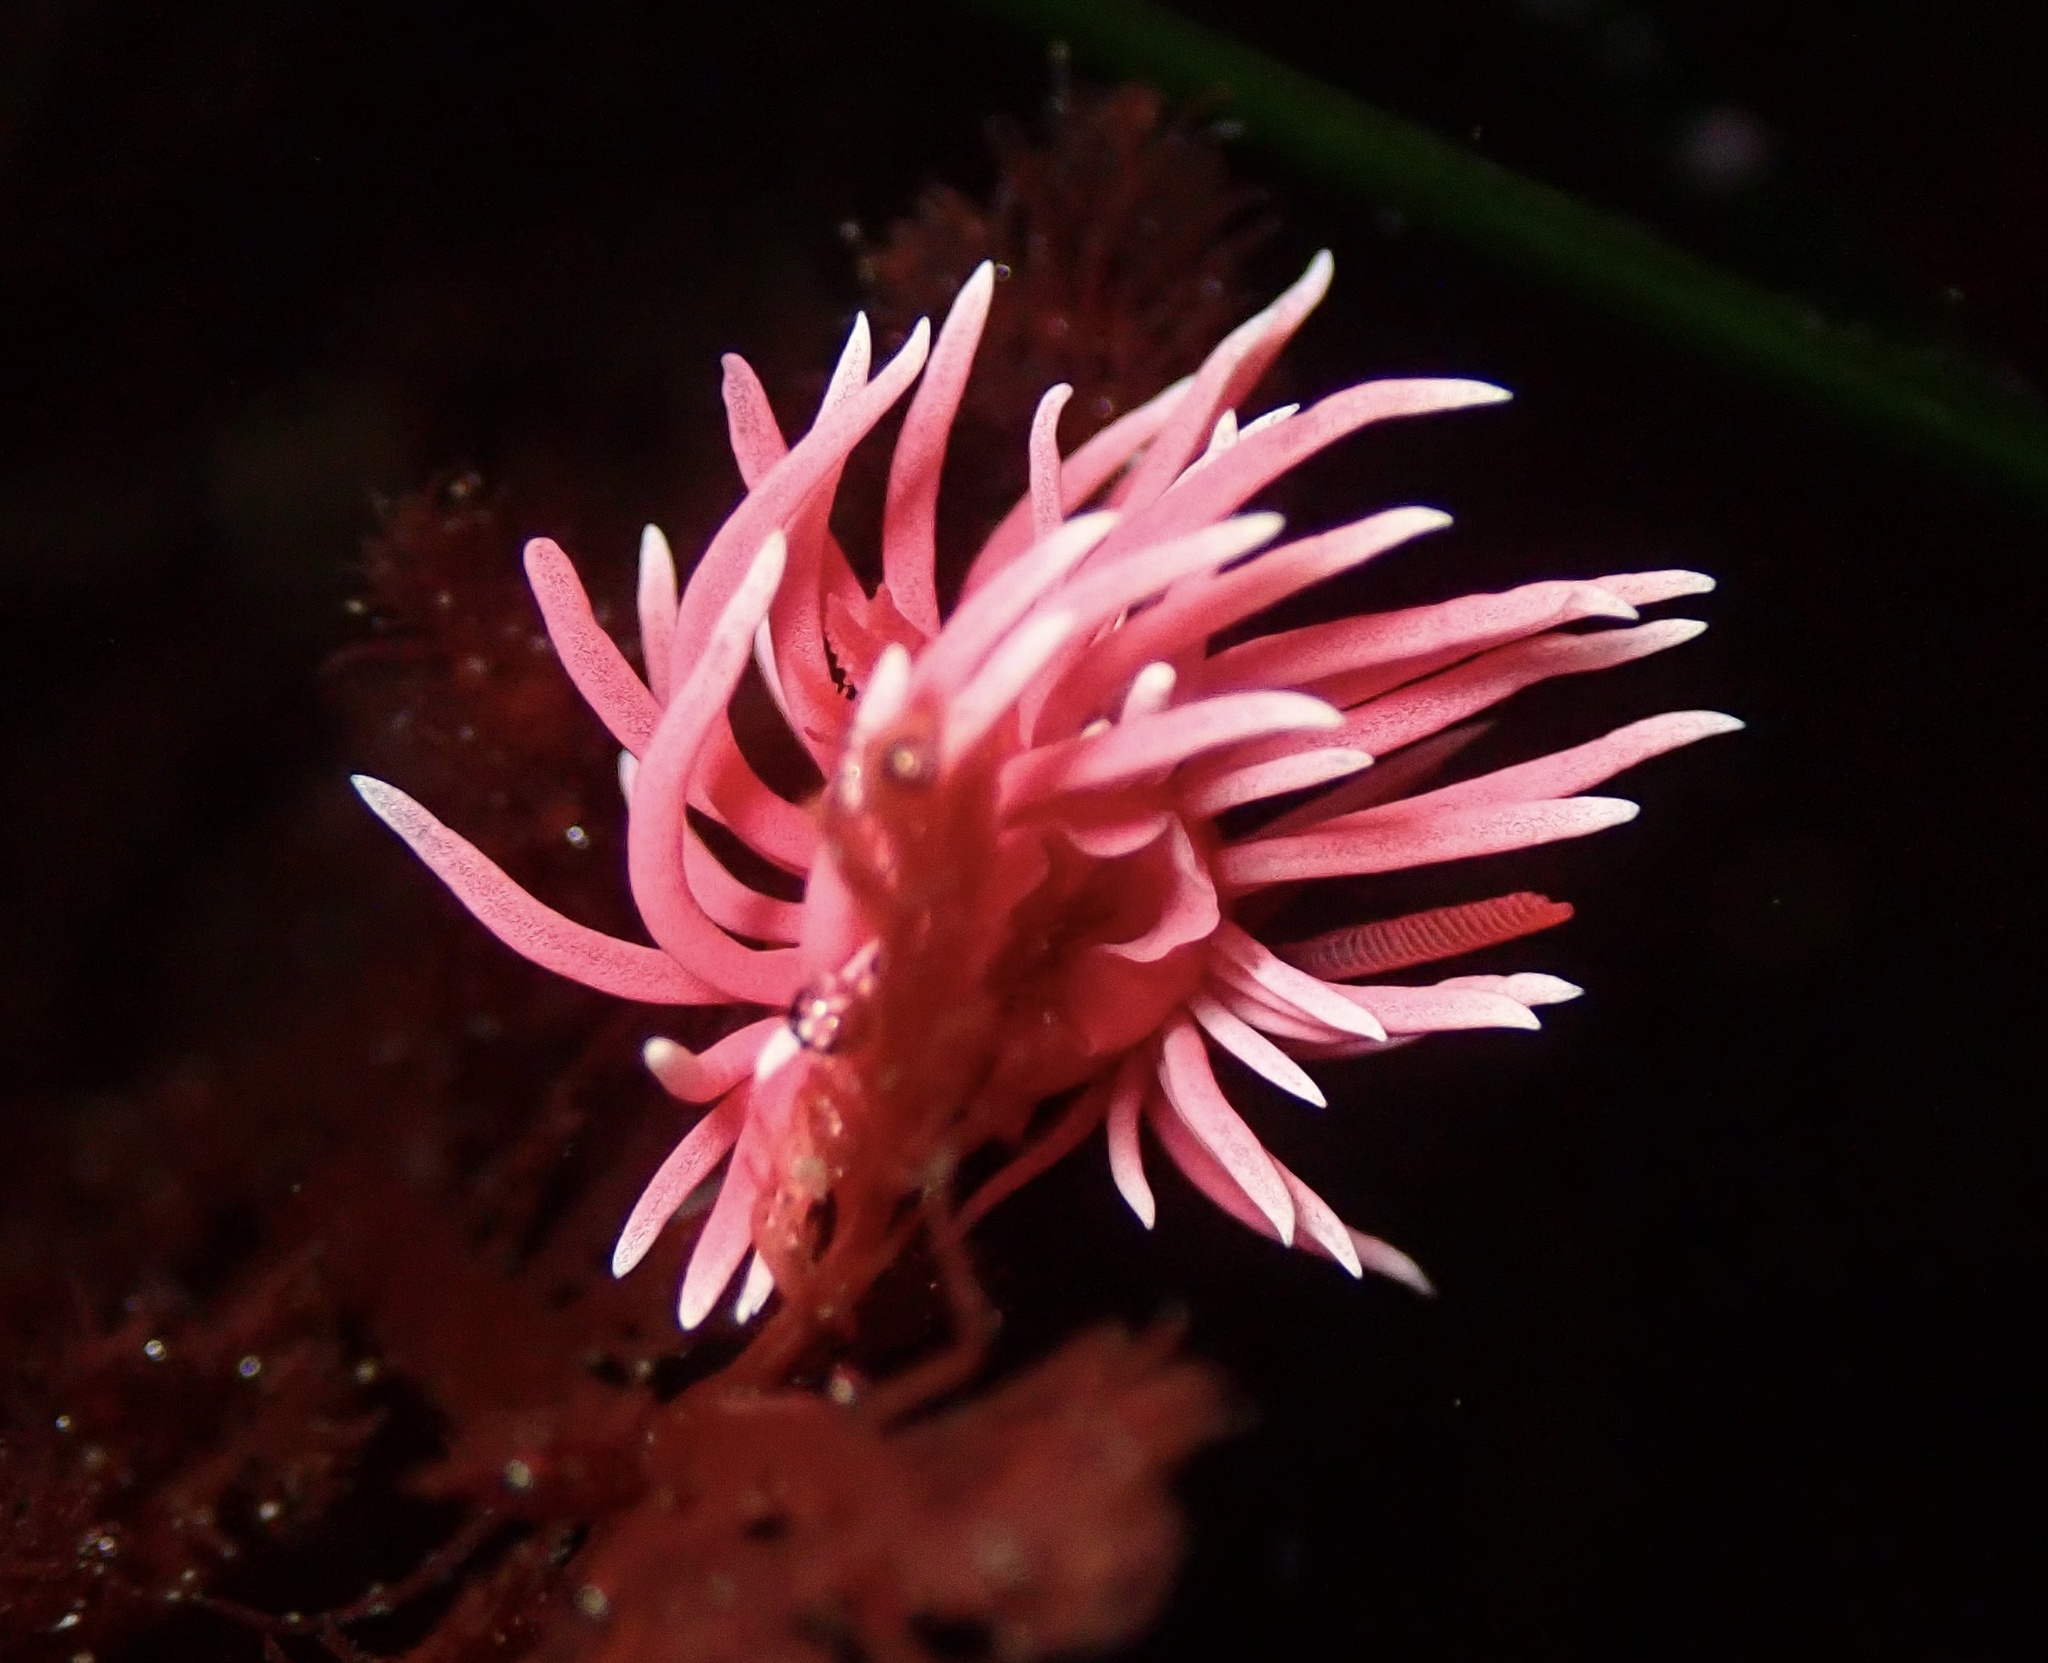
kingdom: Animalia
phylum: Mollusca
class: Gastropoda
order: Nudibranchia
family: Goniodorididae
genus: Okenia
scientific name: Okenia
